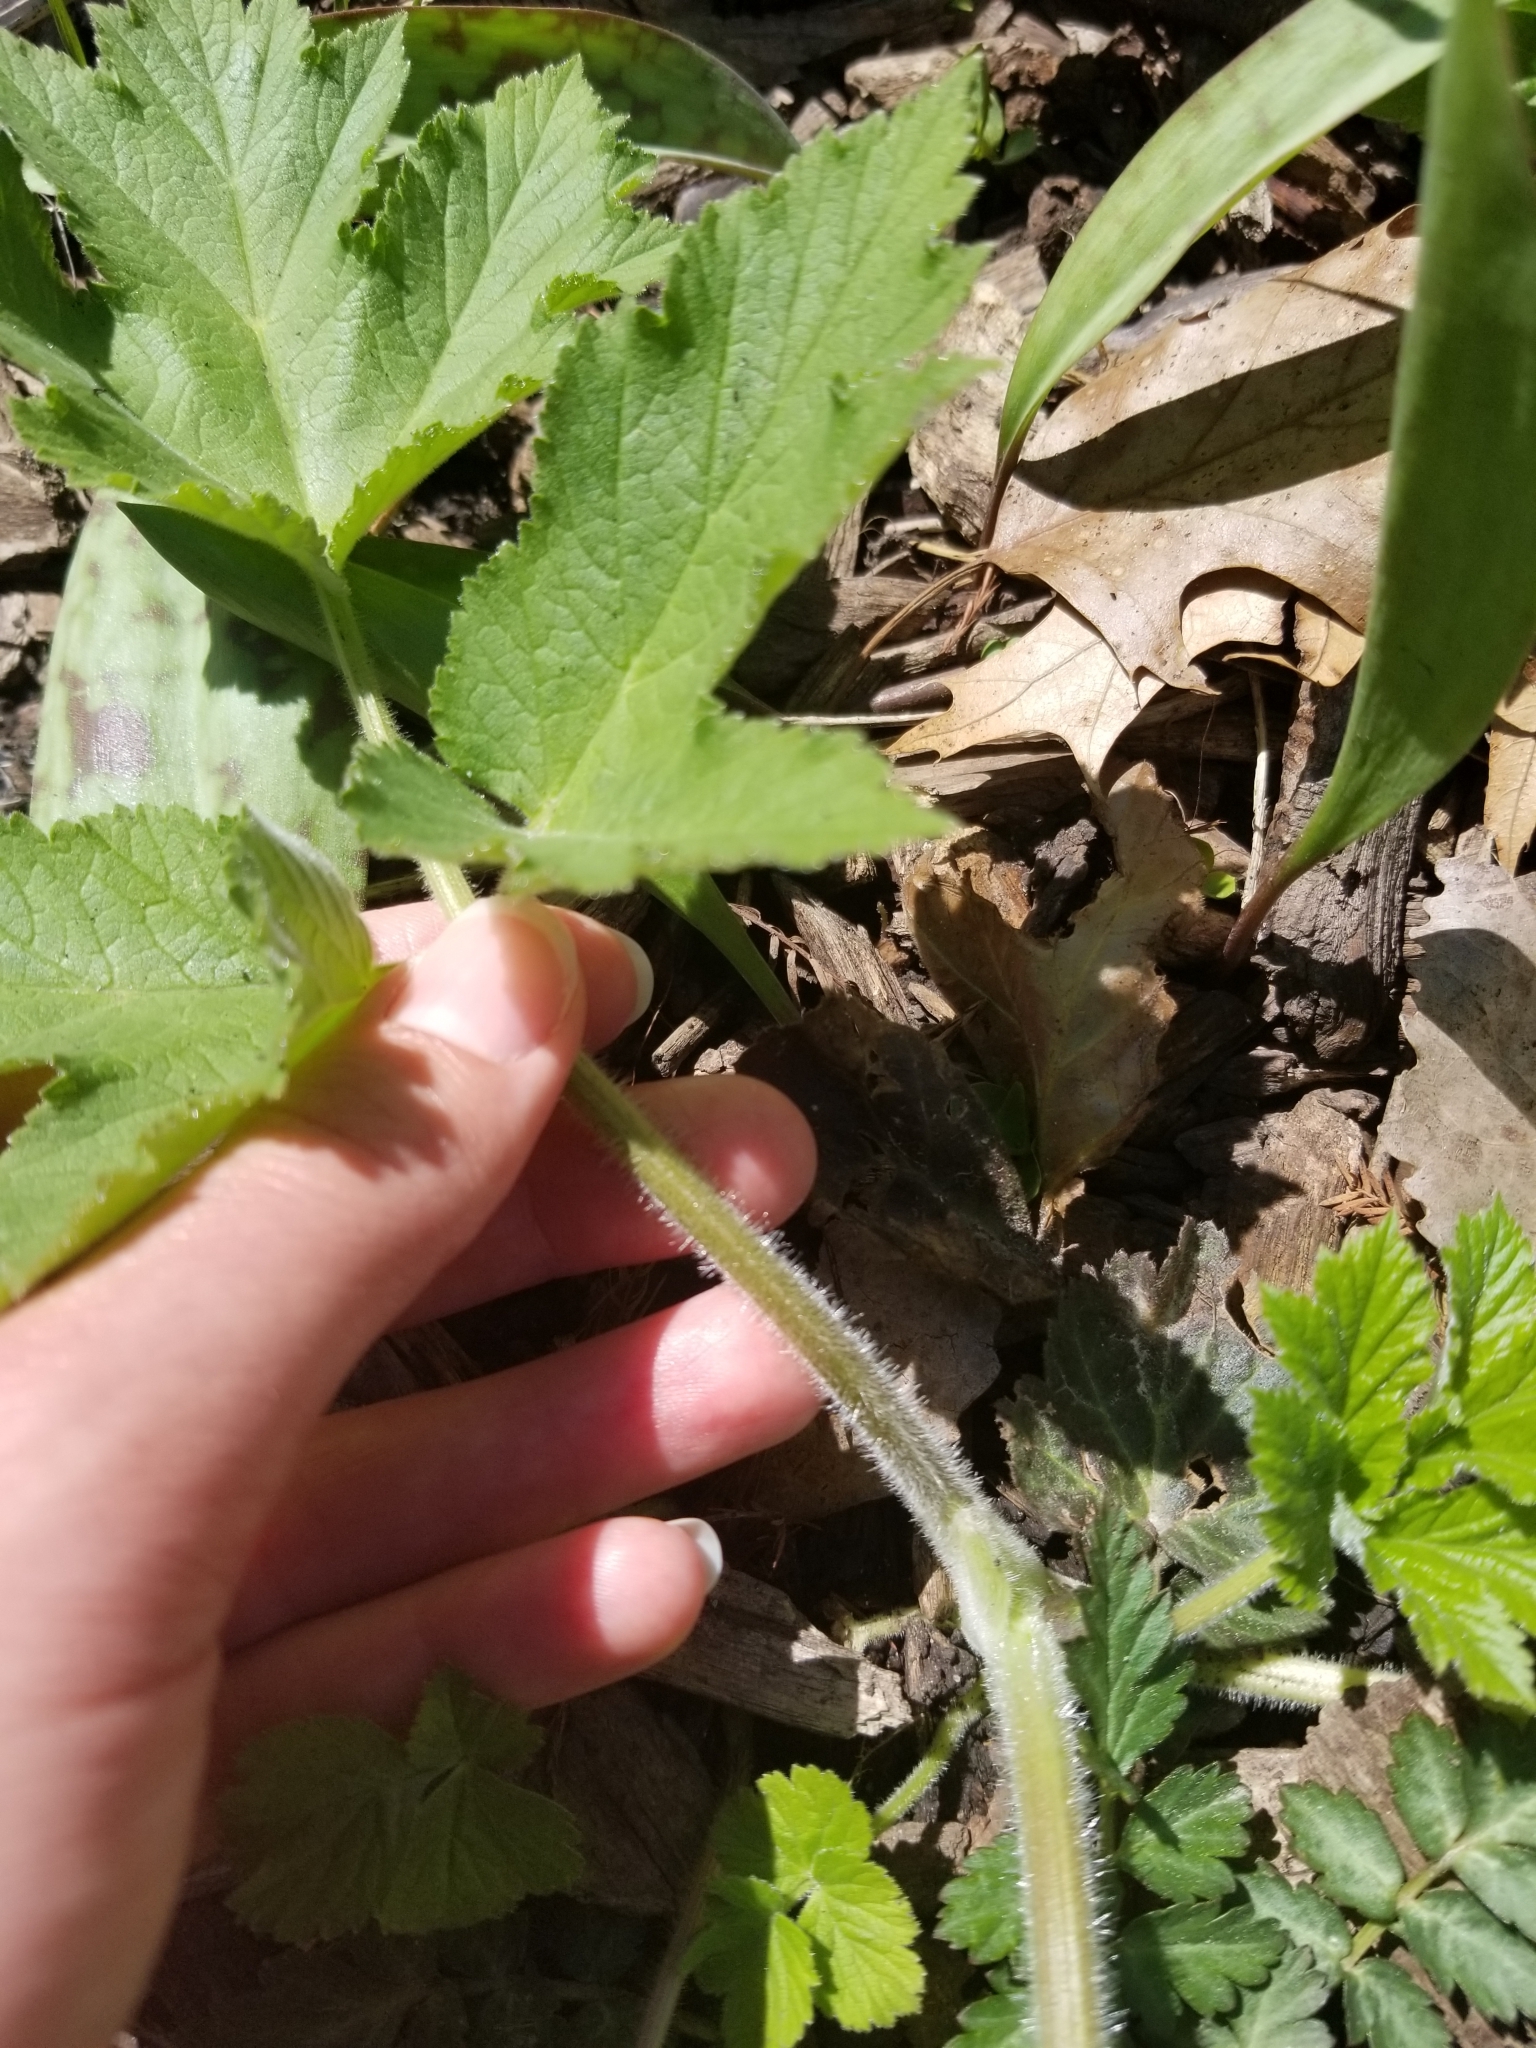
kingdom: Plantae
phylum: Tracheophyta
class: Magnoliopsida
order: Apiales
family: Apiaceae
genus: Heracleum
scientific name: Heracleum maximum
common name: American cow parsnip
